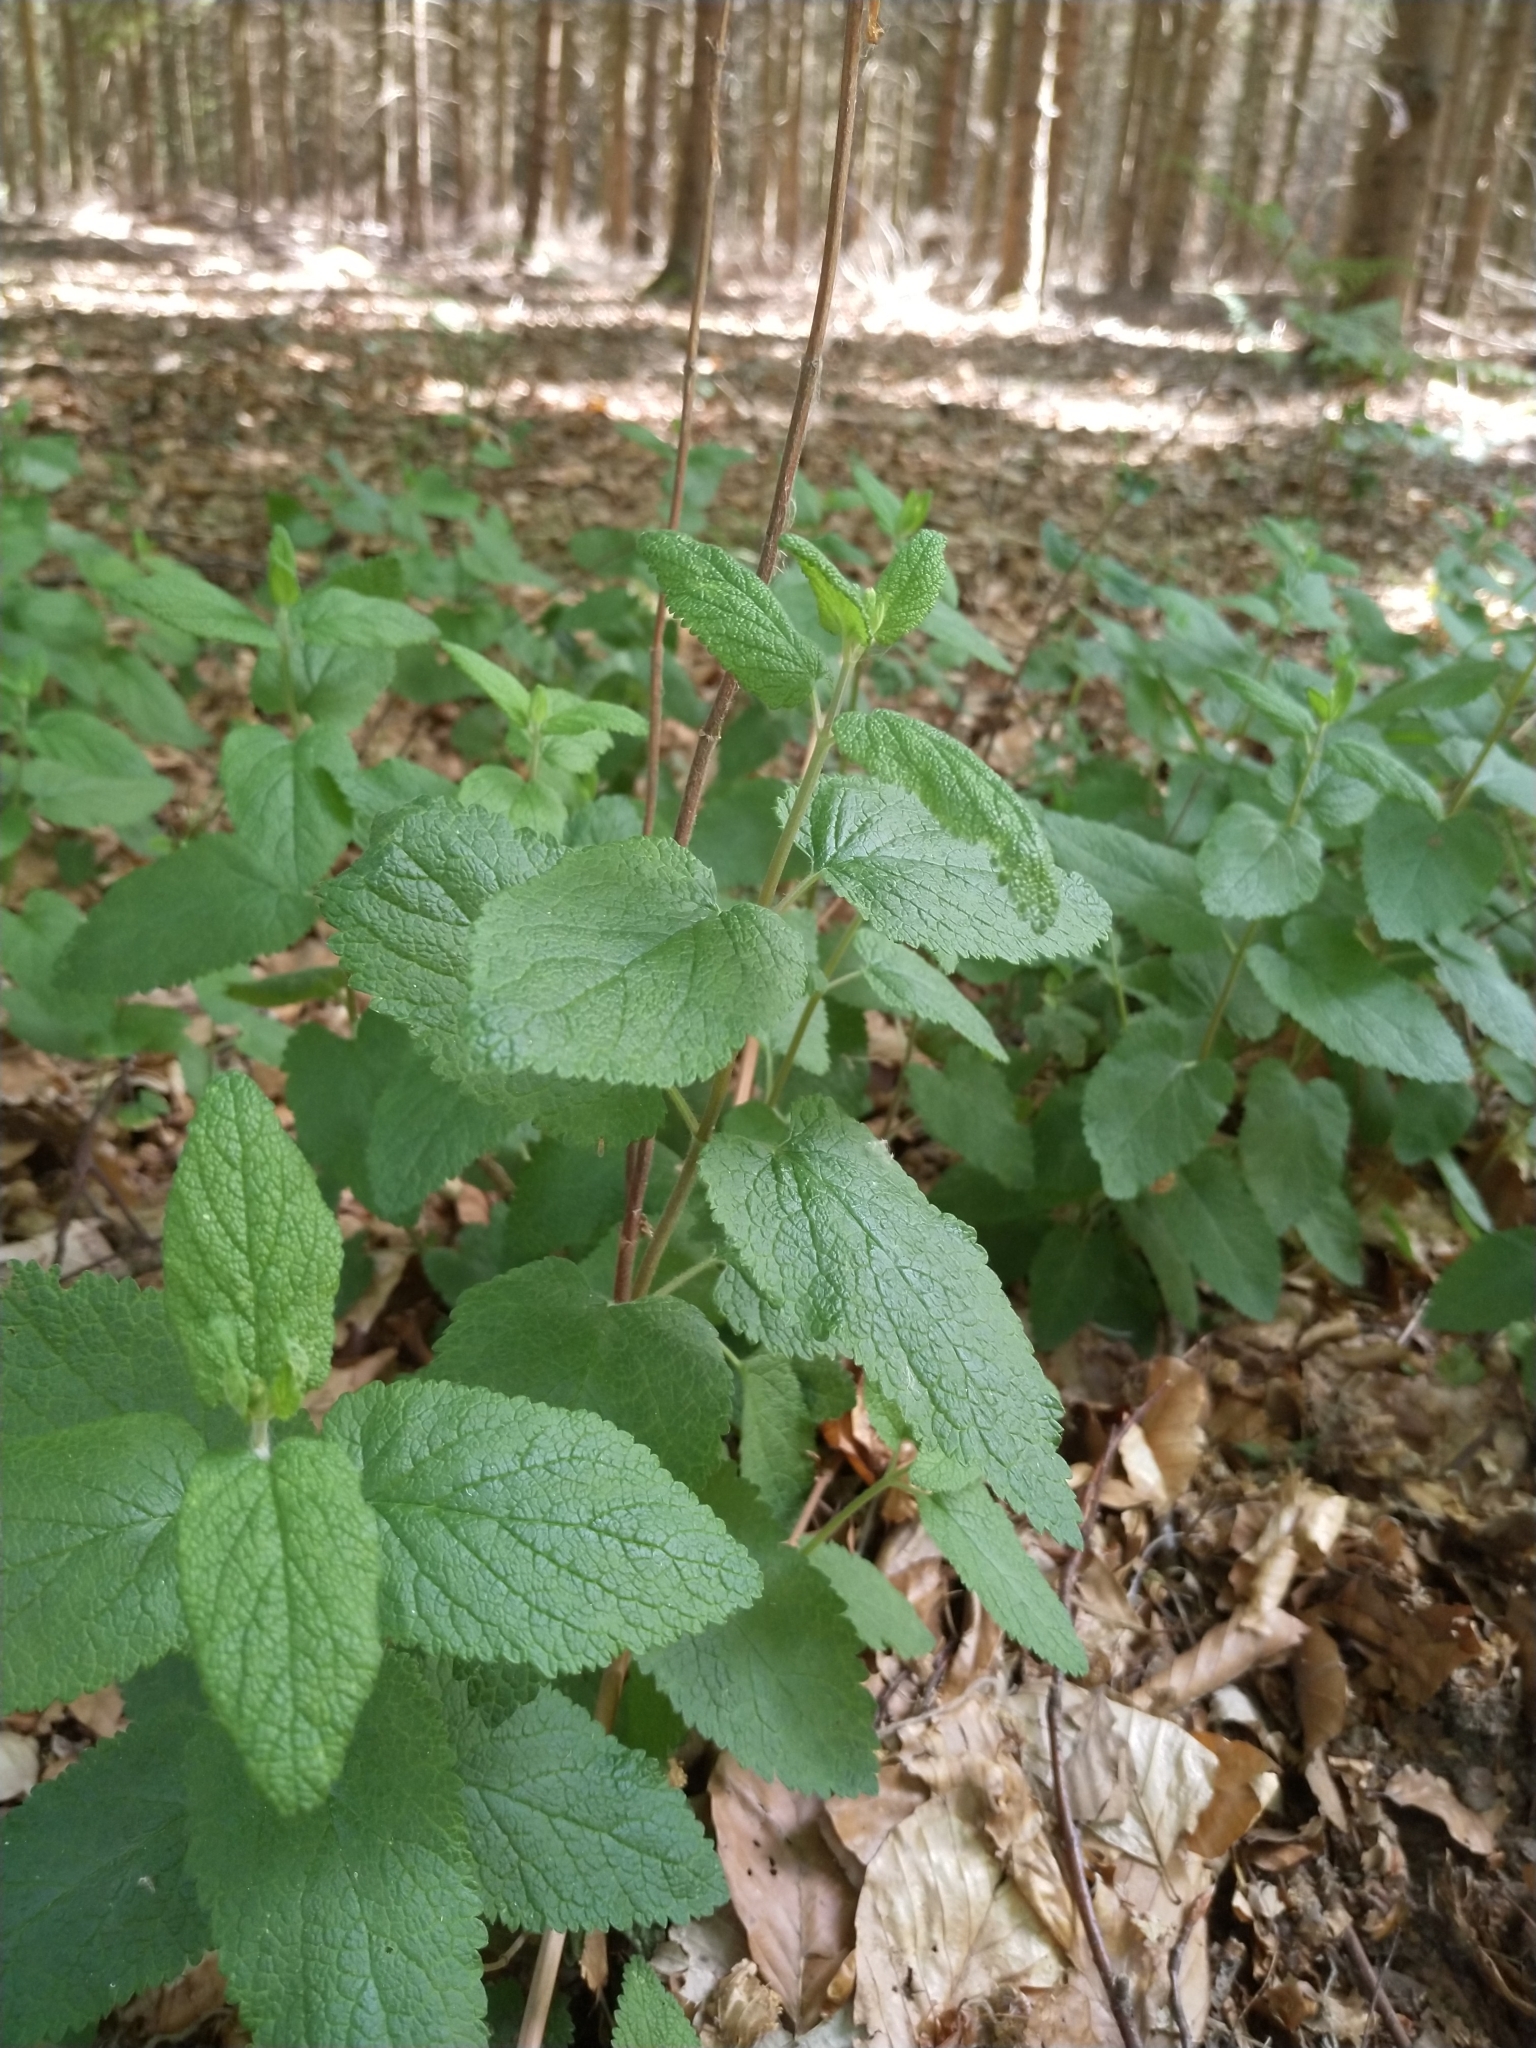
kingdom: Plantae
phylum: Tracheophyta
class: Magnoliopsida
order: Lamiales
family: Lamiaceae
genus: Teucrium
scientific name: Teucrium scorodonia
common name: Woodland germander
